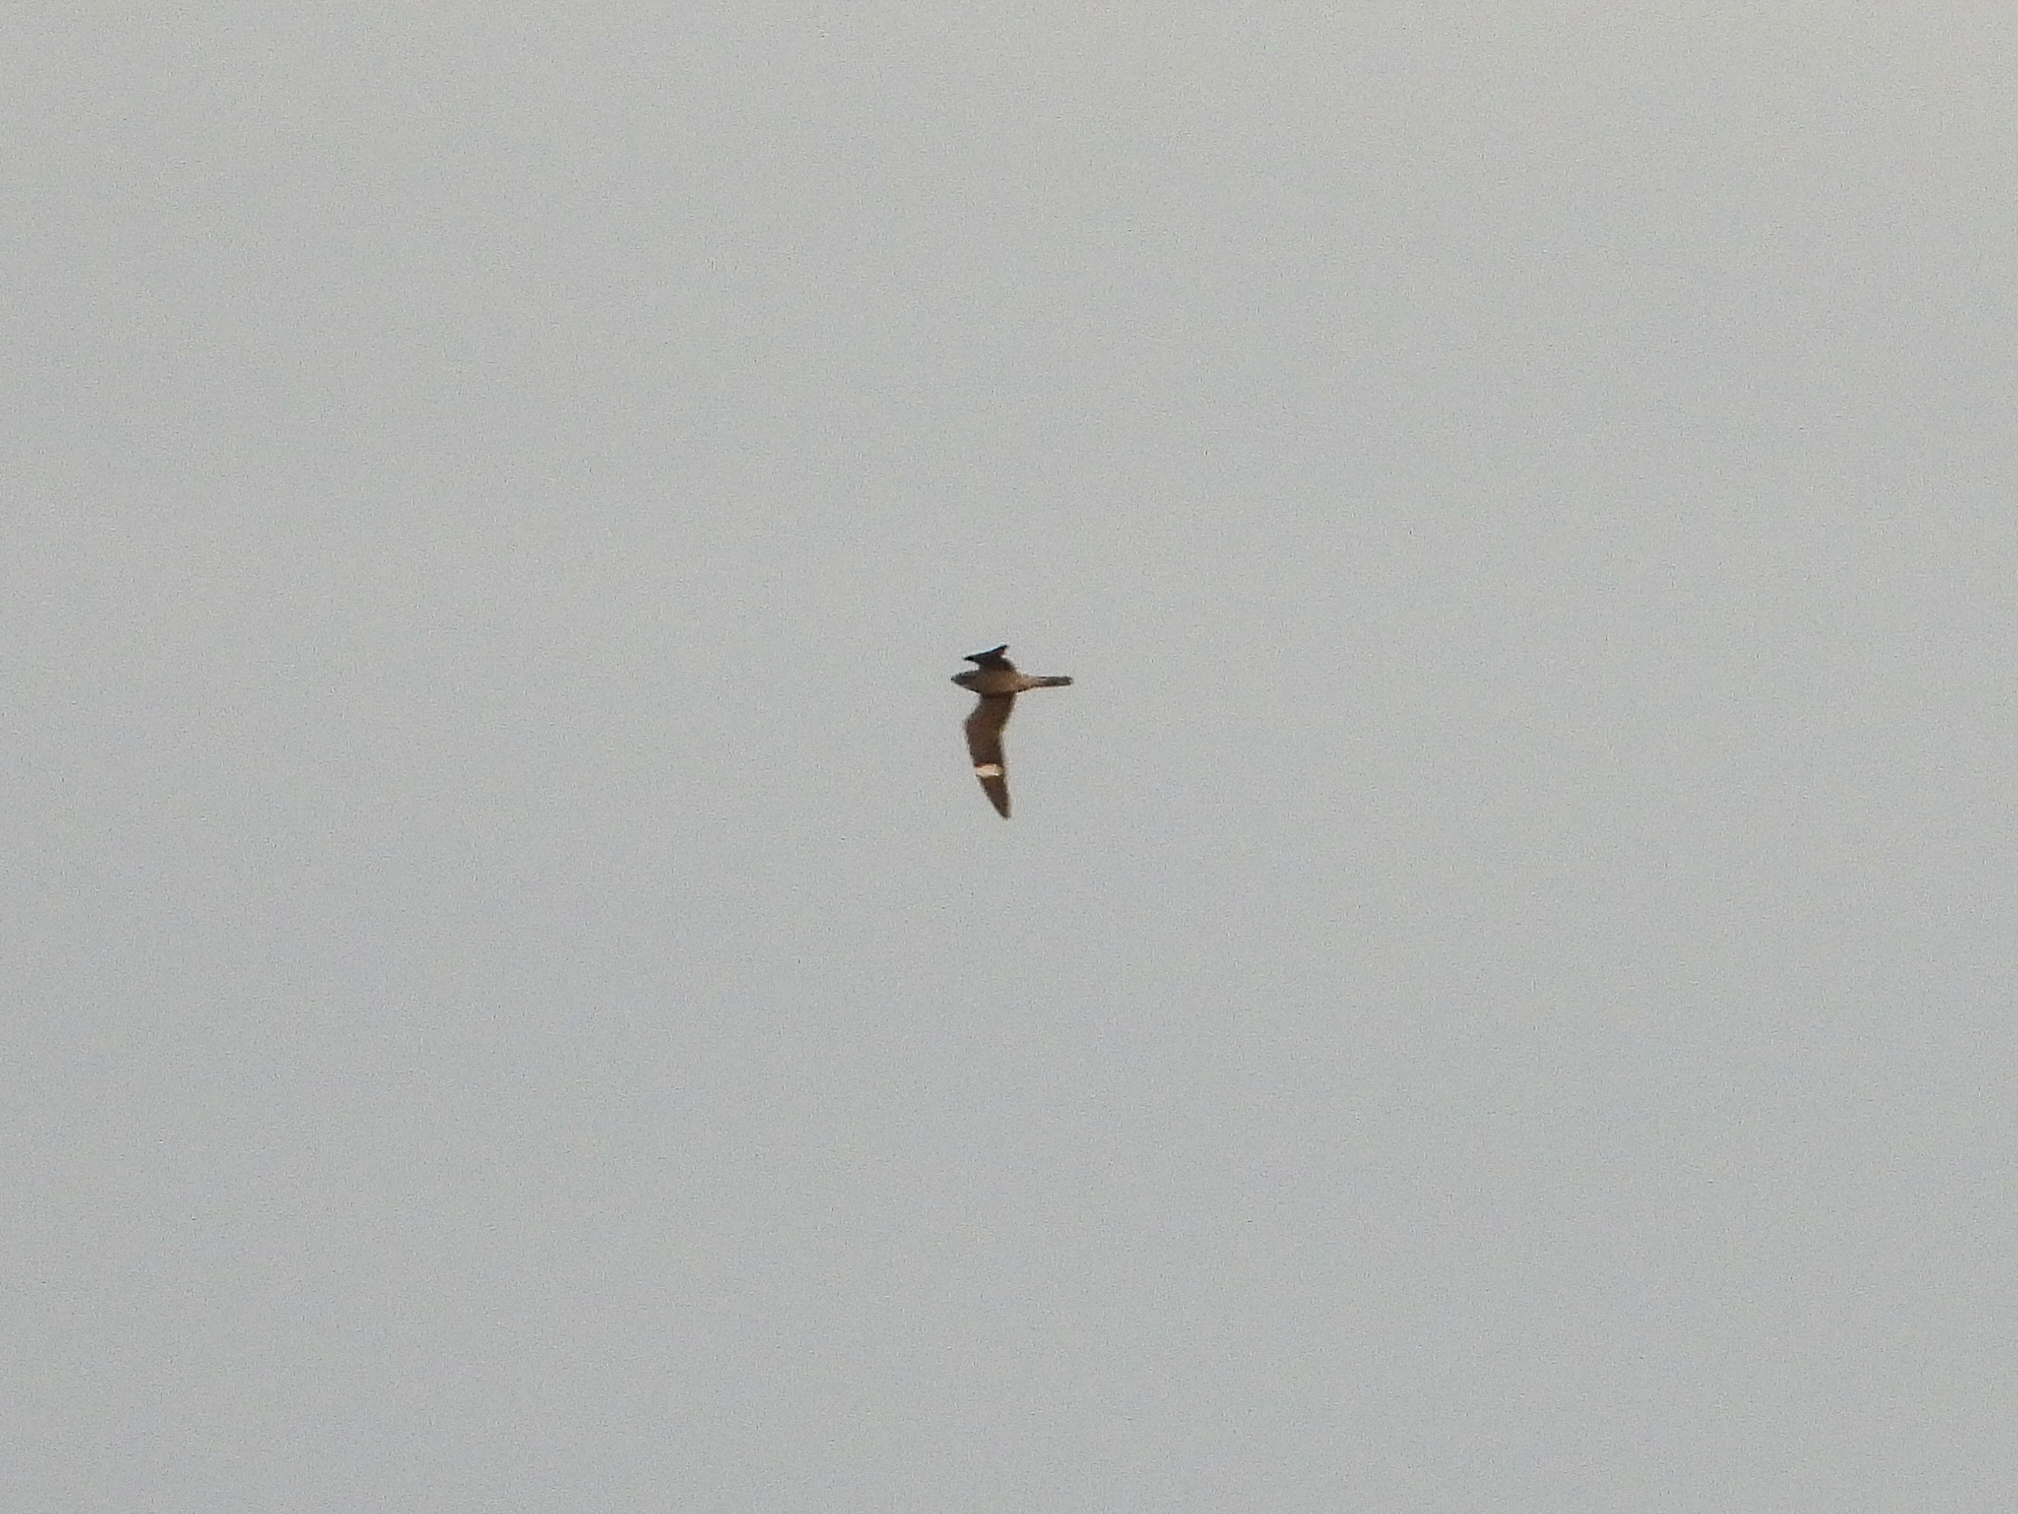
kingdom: Animalia
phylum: Chordata
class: Aves
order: Caprimulgiformes
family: Caprimulgidae
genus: Chordeiles
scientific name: Chordeiles minor
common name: Common nighthawk
